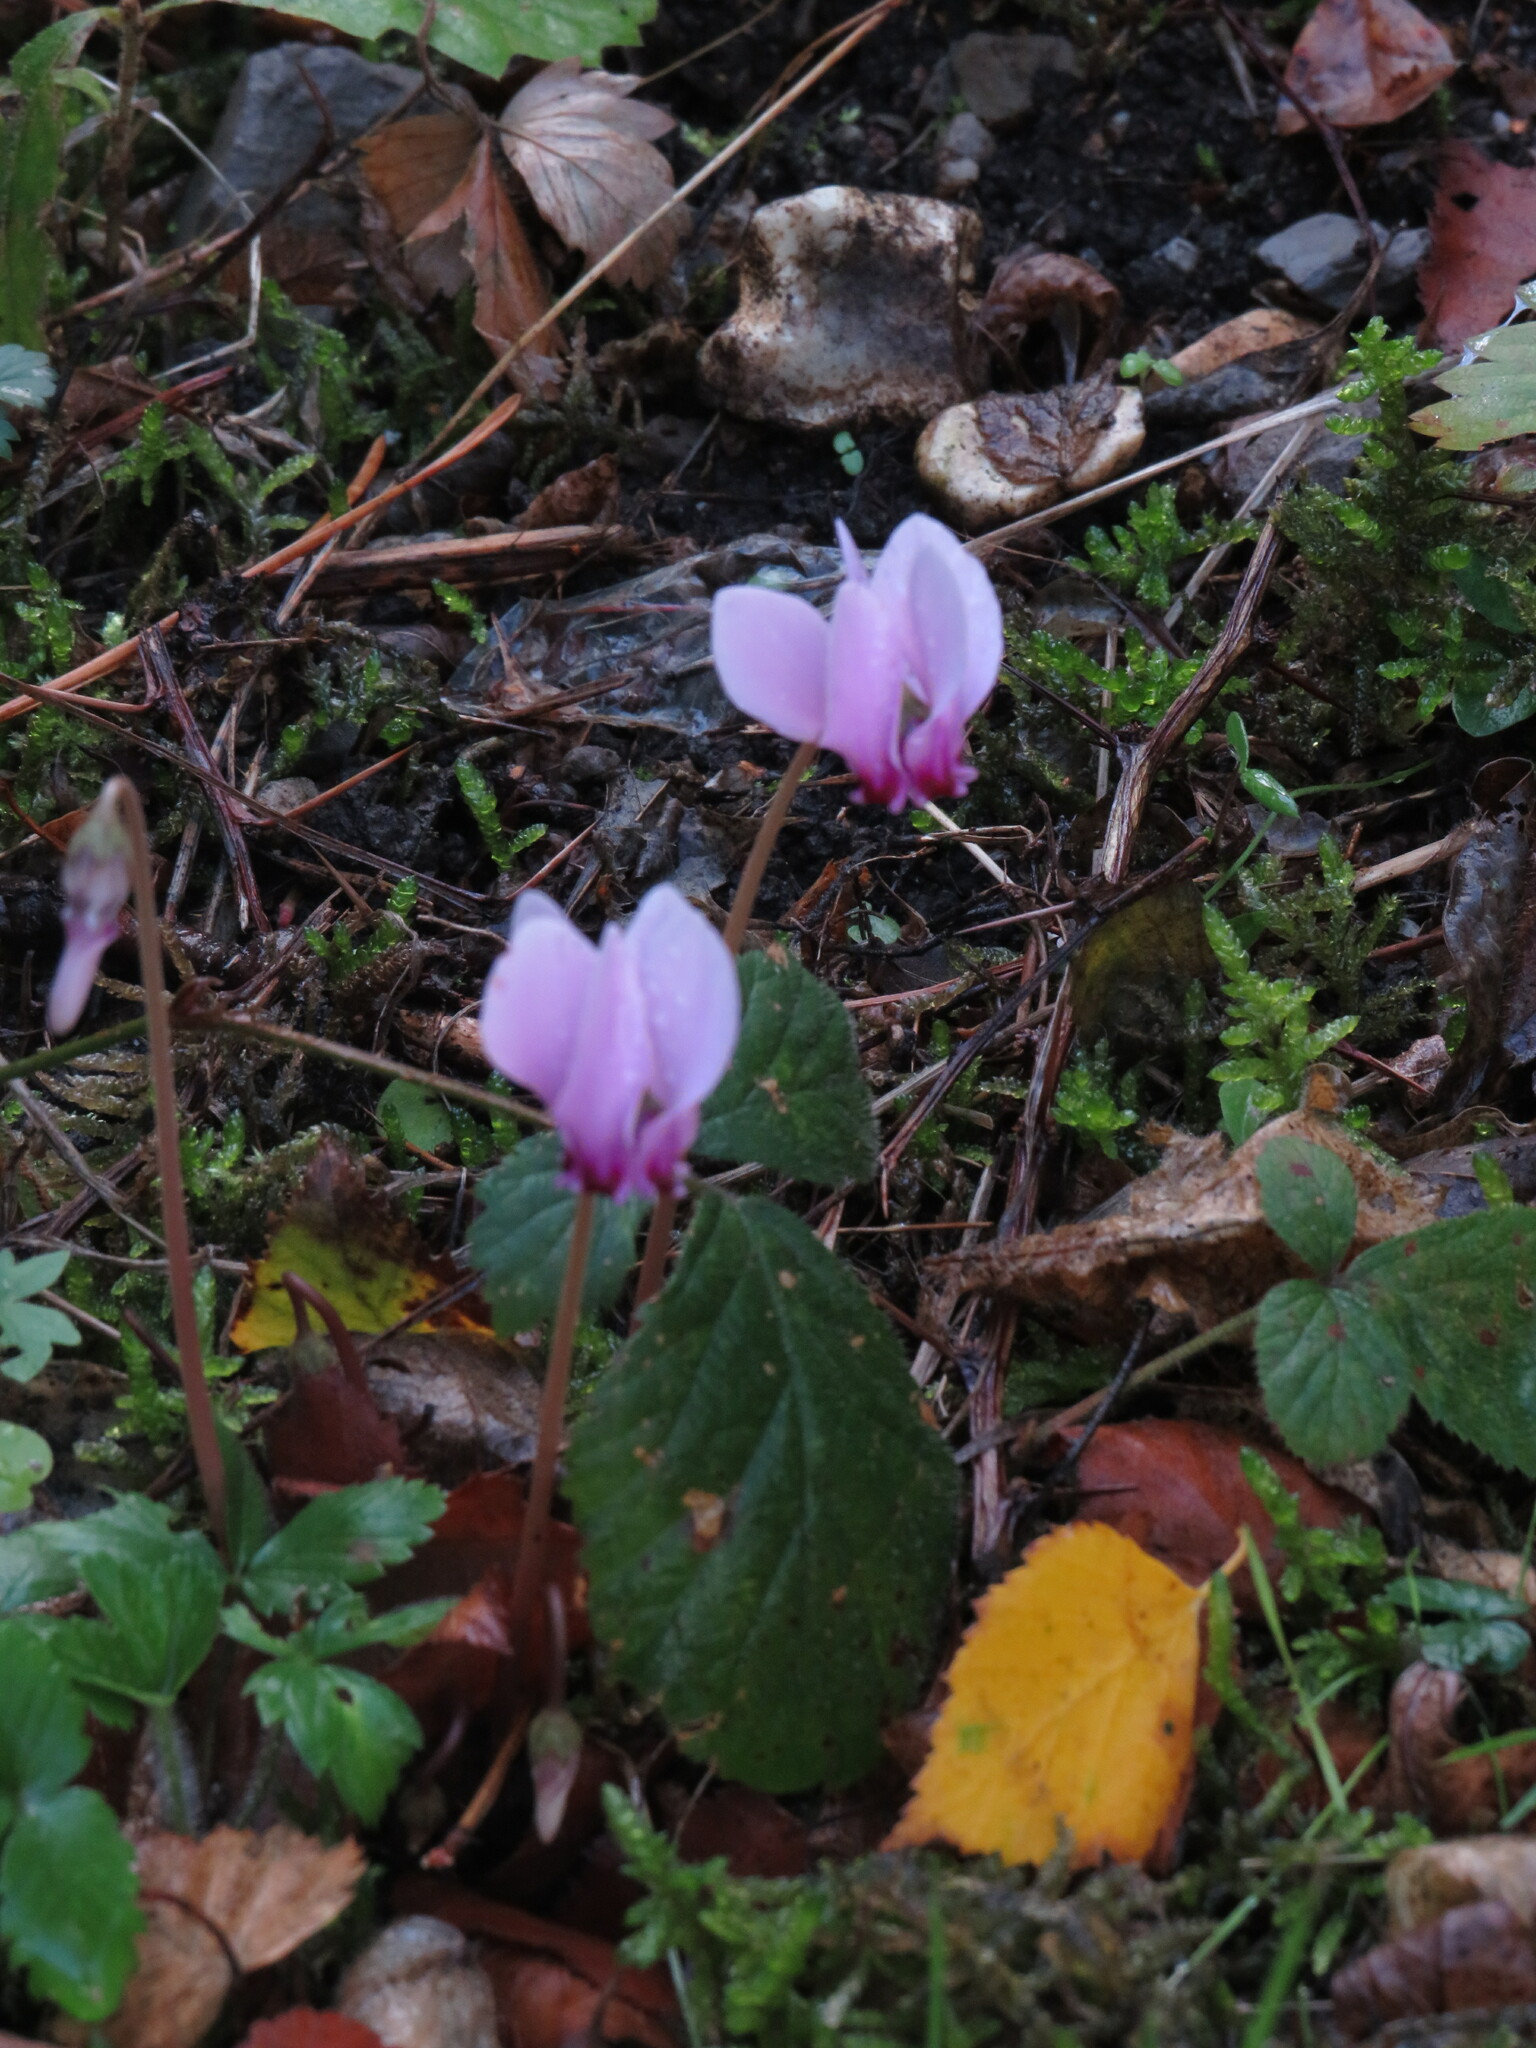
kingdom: Plantae
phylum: Tracheophyta
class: Magnoliopsida
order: Ericales
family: Primulaceae
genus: Cyclamen
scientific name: Cyclamen hederifolium
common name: Sowbread
